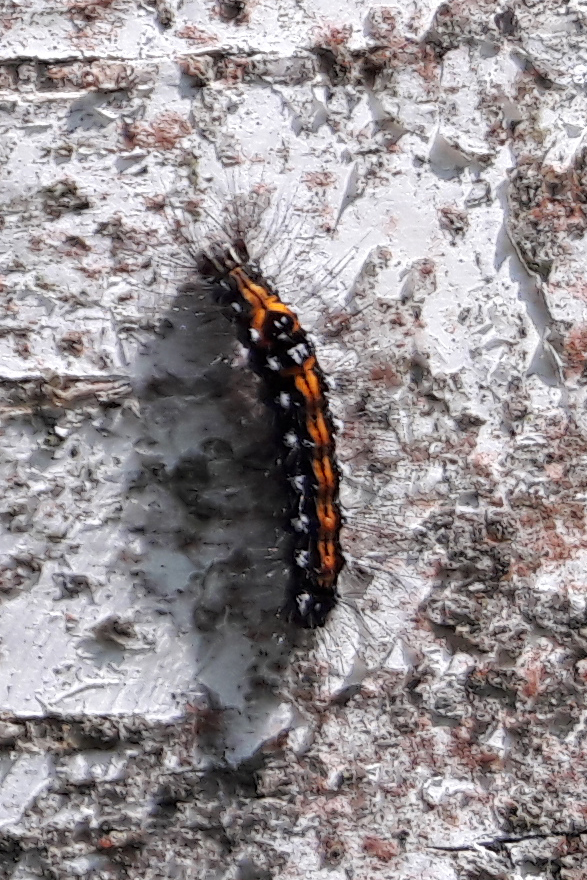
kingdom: Animalia
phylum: Arthropoda
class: Insecta
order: Lepidoptera
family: Erebidae
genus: Sphrageidus
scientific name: Sphrageidus similis
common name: Yellow-tail
